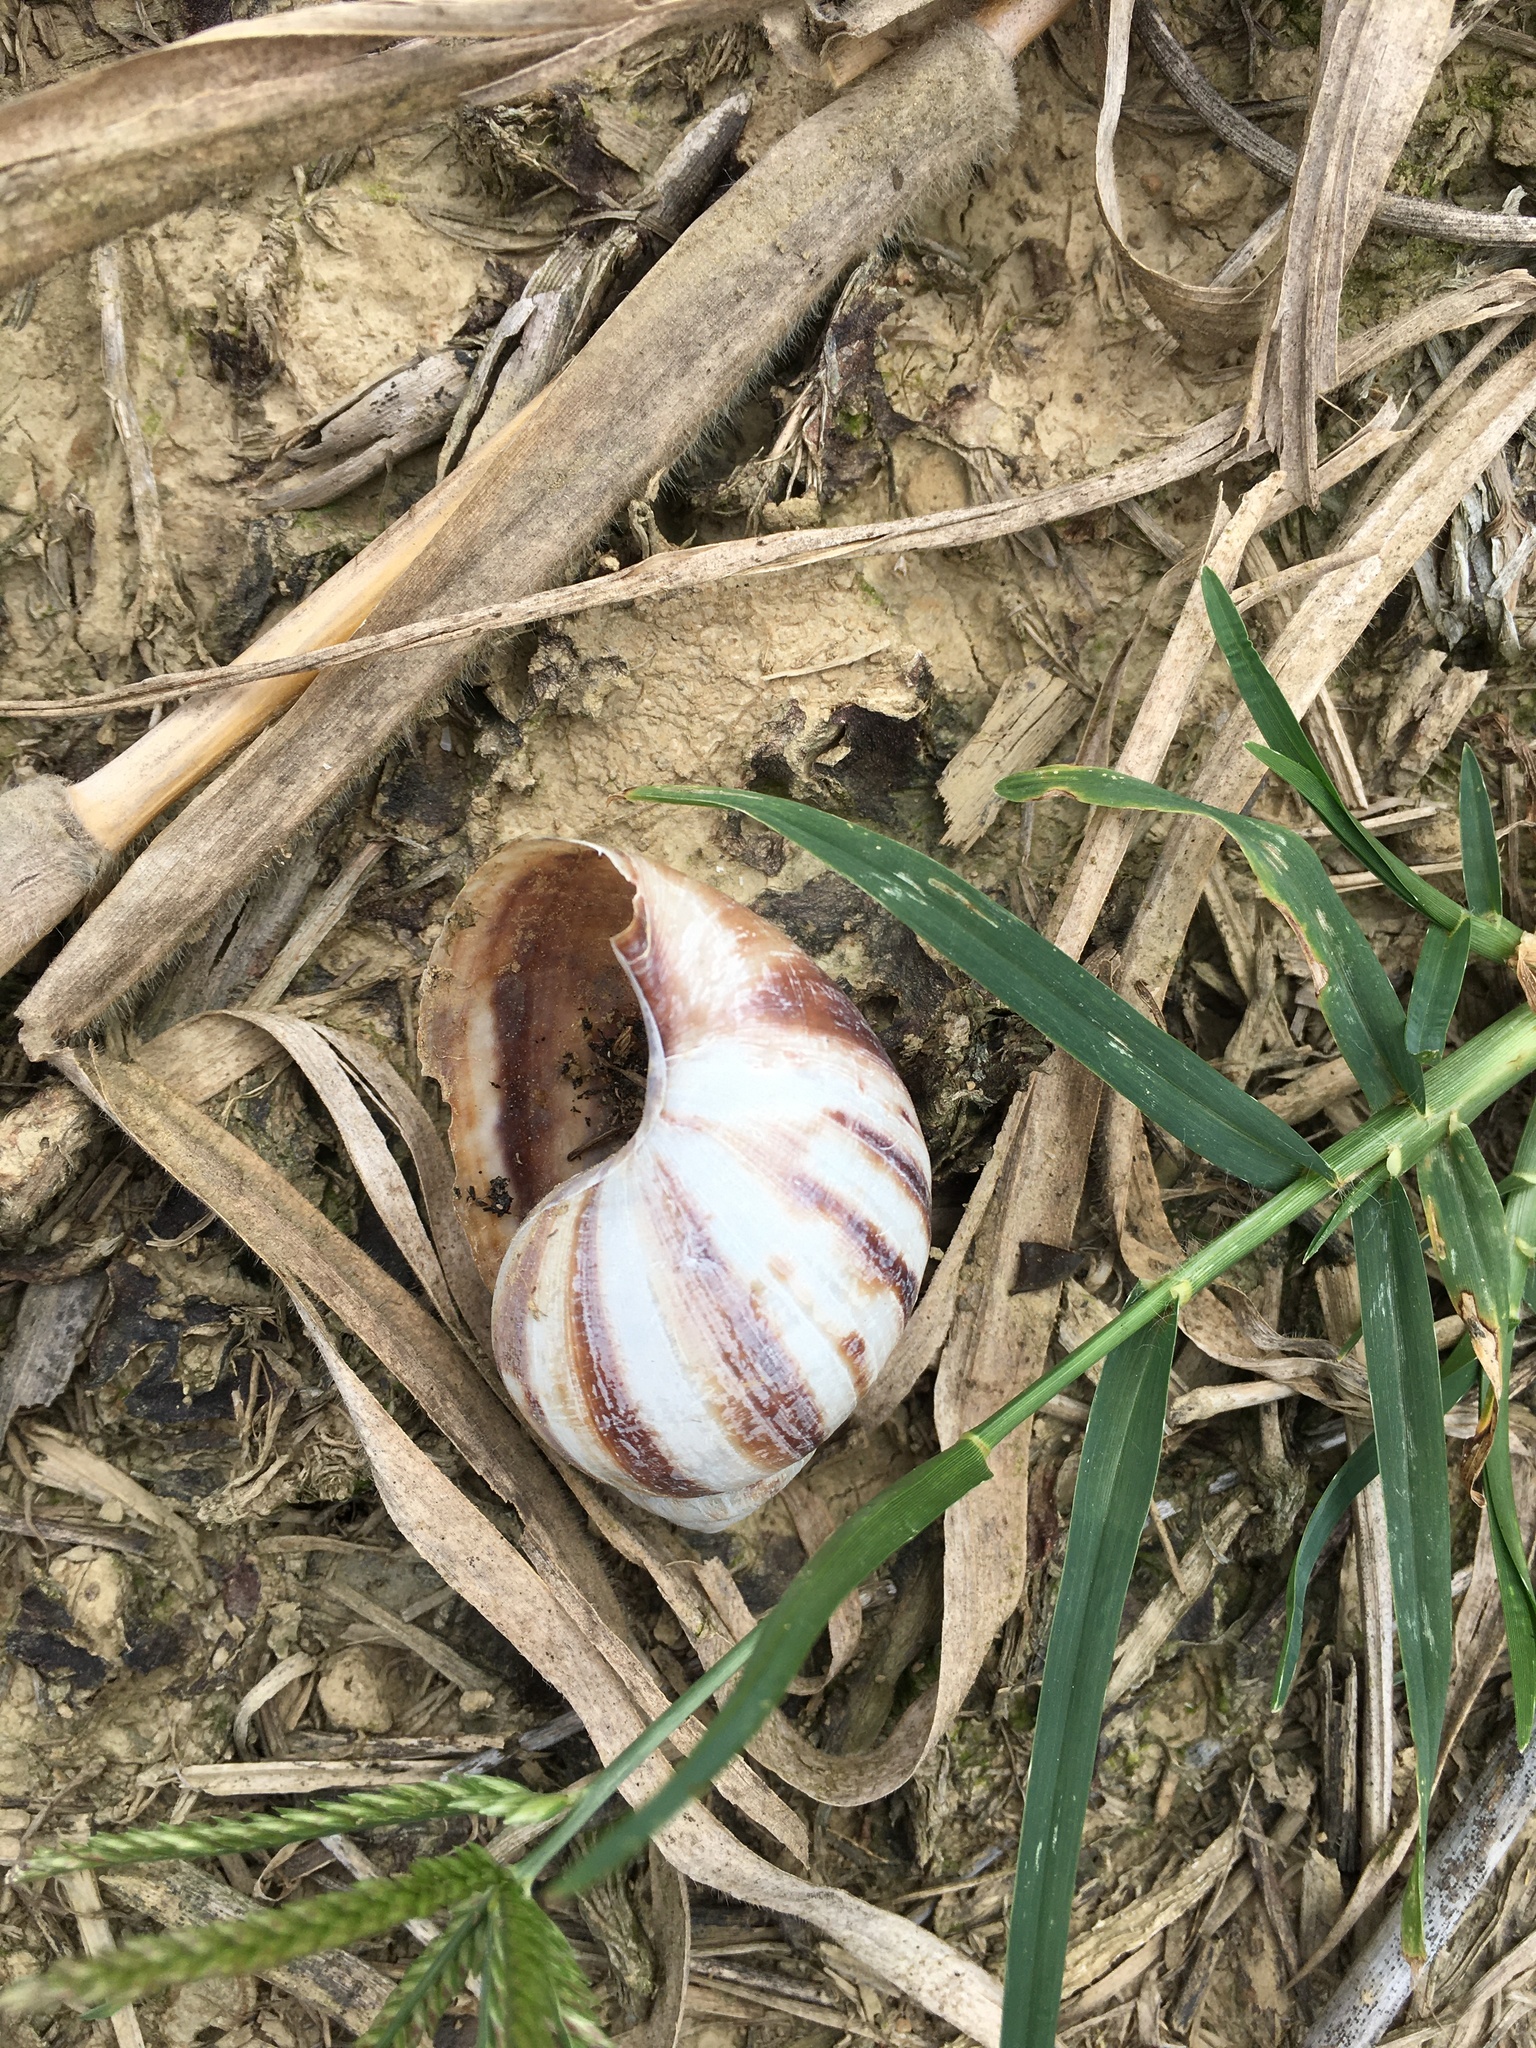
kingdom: Animalia
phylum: Mollusca
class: Gastropoda
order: Stylommatophora
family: Achatinidae
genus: Lissachatina
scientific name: Lissachatina fulica
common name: Giant african snail
